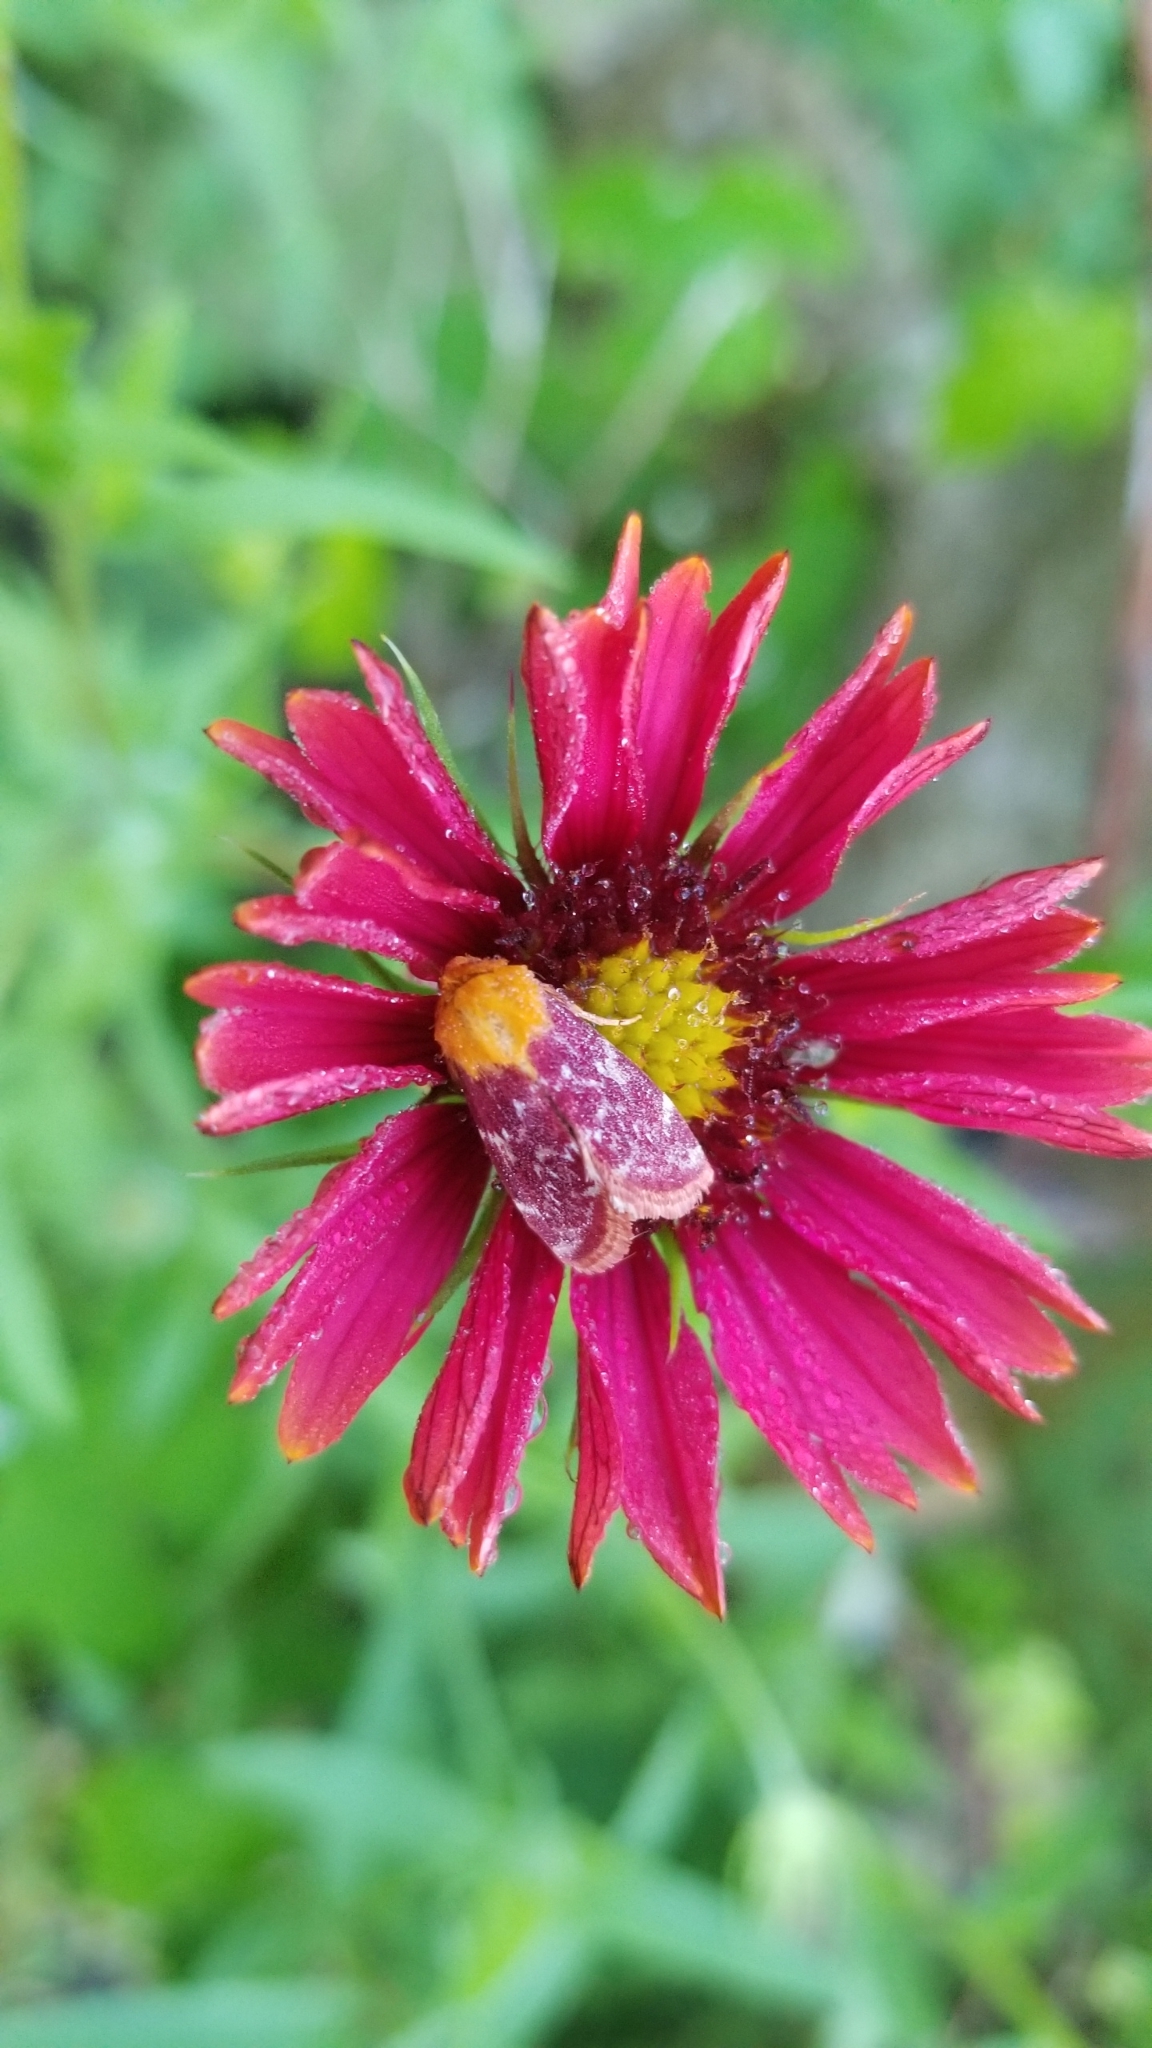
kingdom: Animalia
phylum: Arthropoda
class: Insecta
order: Lepidoptera
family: Noctuidae
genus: Schinia
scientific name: Schinia volupia
